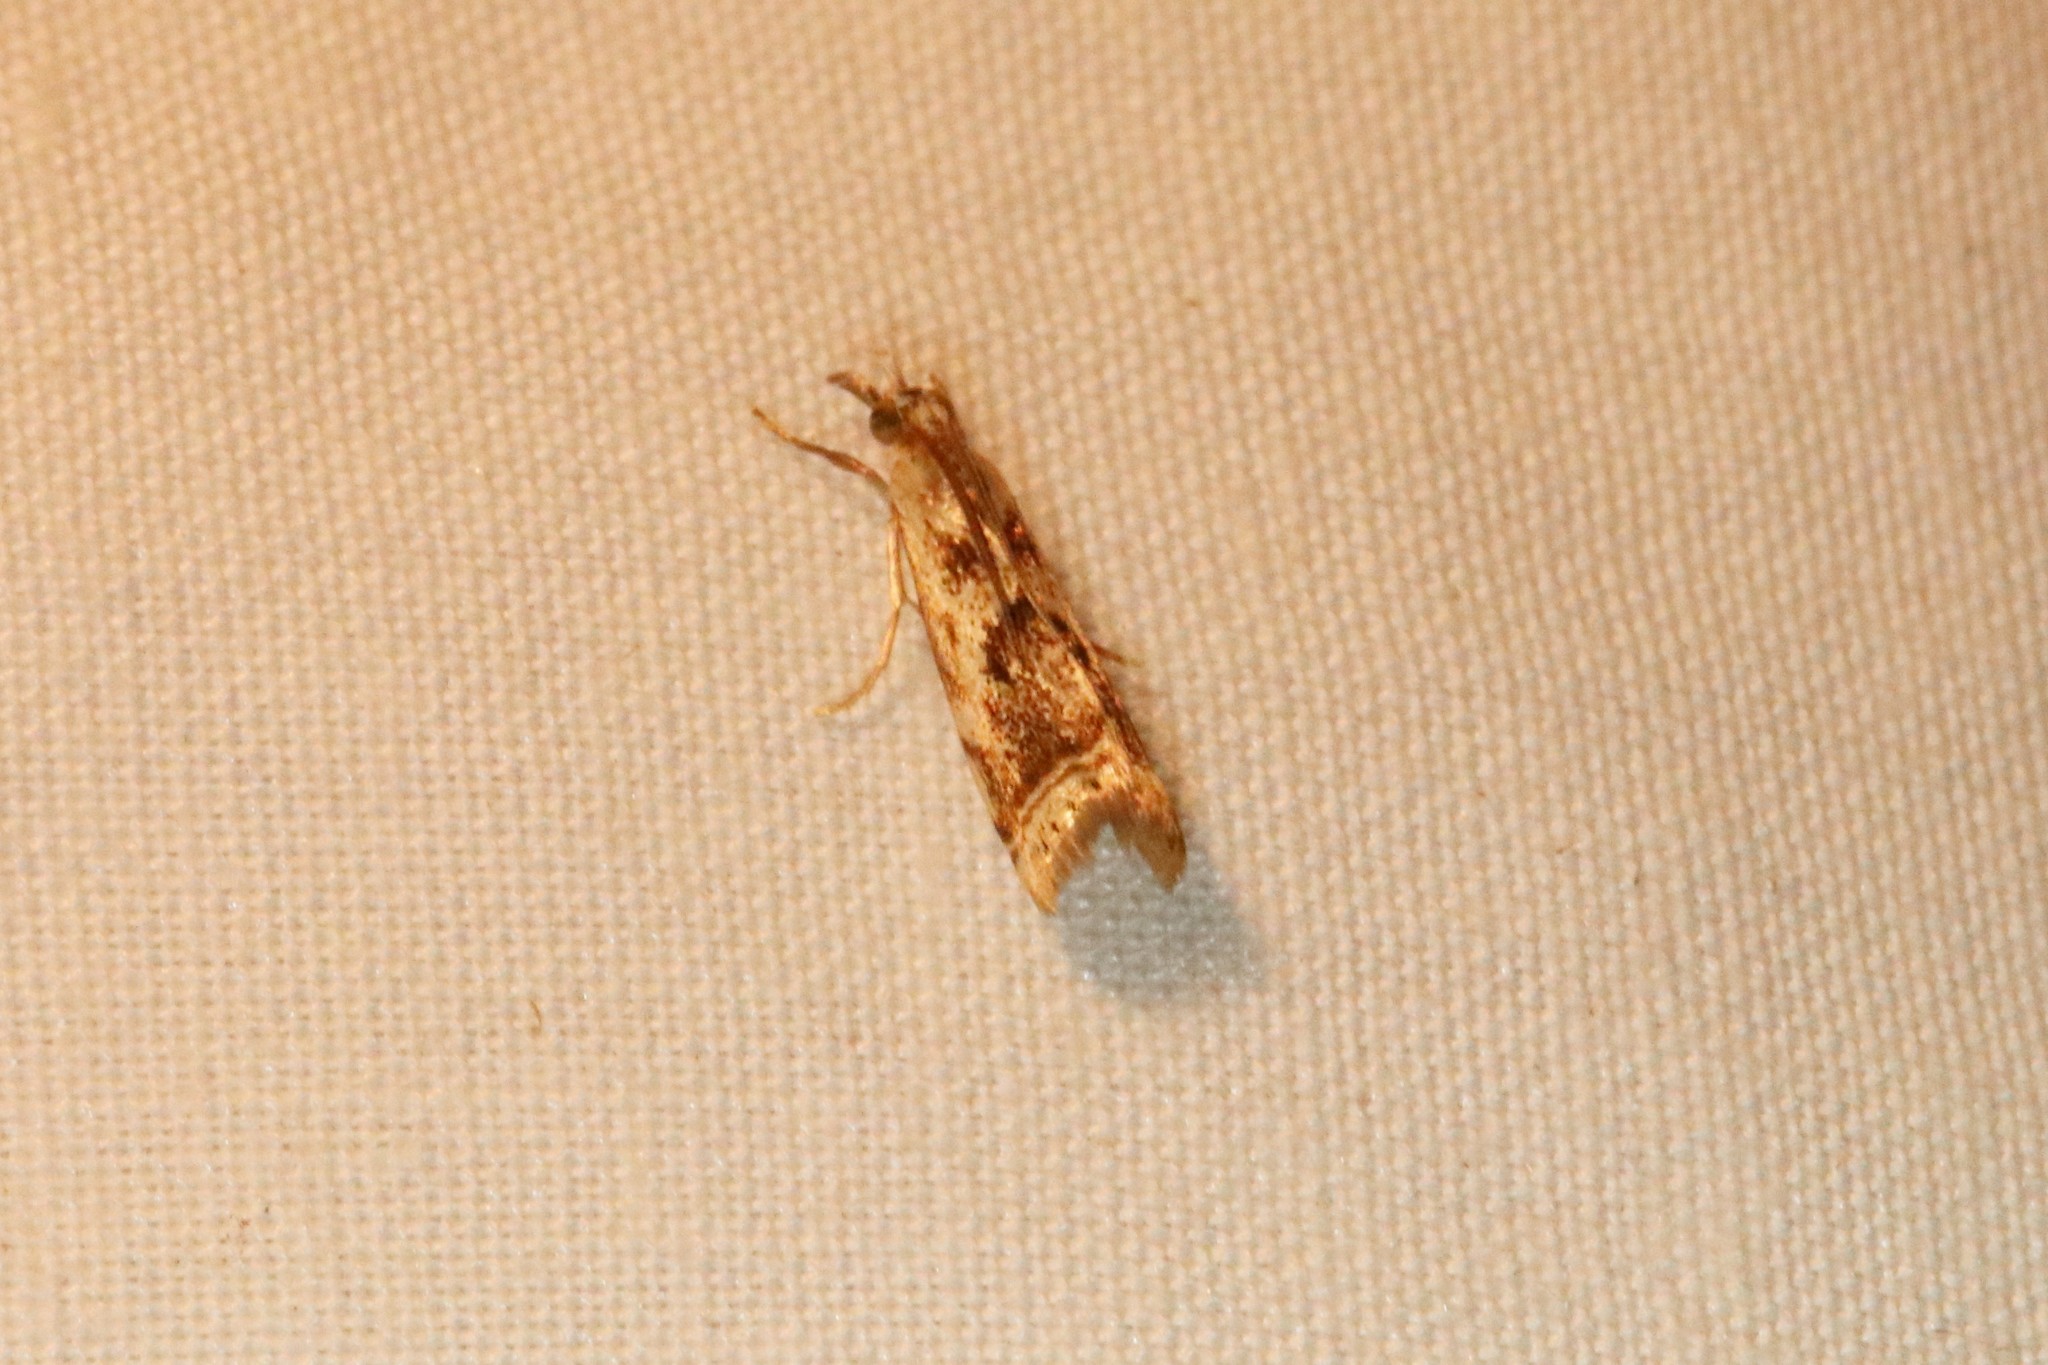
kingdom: Animalia
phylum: Arthropoda
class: Insecta
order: Lepidoptera
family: Crambidae
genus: Microcrambus
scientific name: Microcrambus elegans
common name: Elegant grass-veneer
